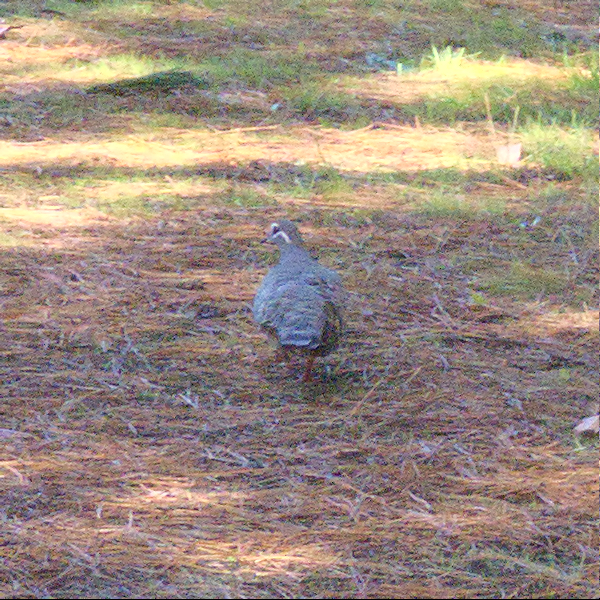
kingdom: Animalia
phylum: Chordata
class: Aves
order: Columbiformes
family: Columbidae
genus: Phaps
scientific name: Phaps chalcoptera
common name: Common bronzewing
